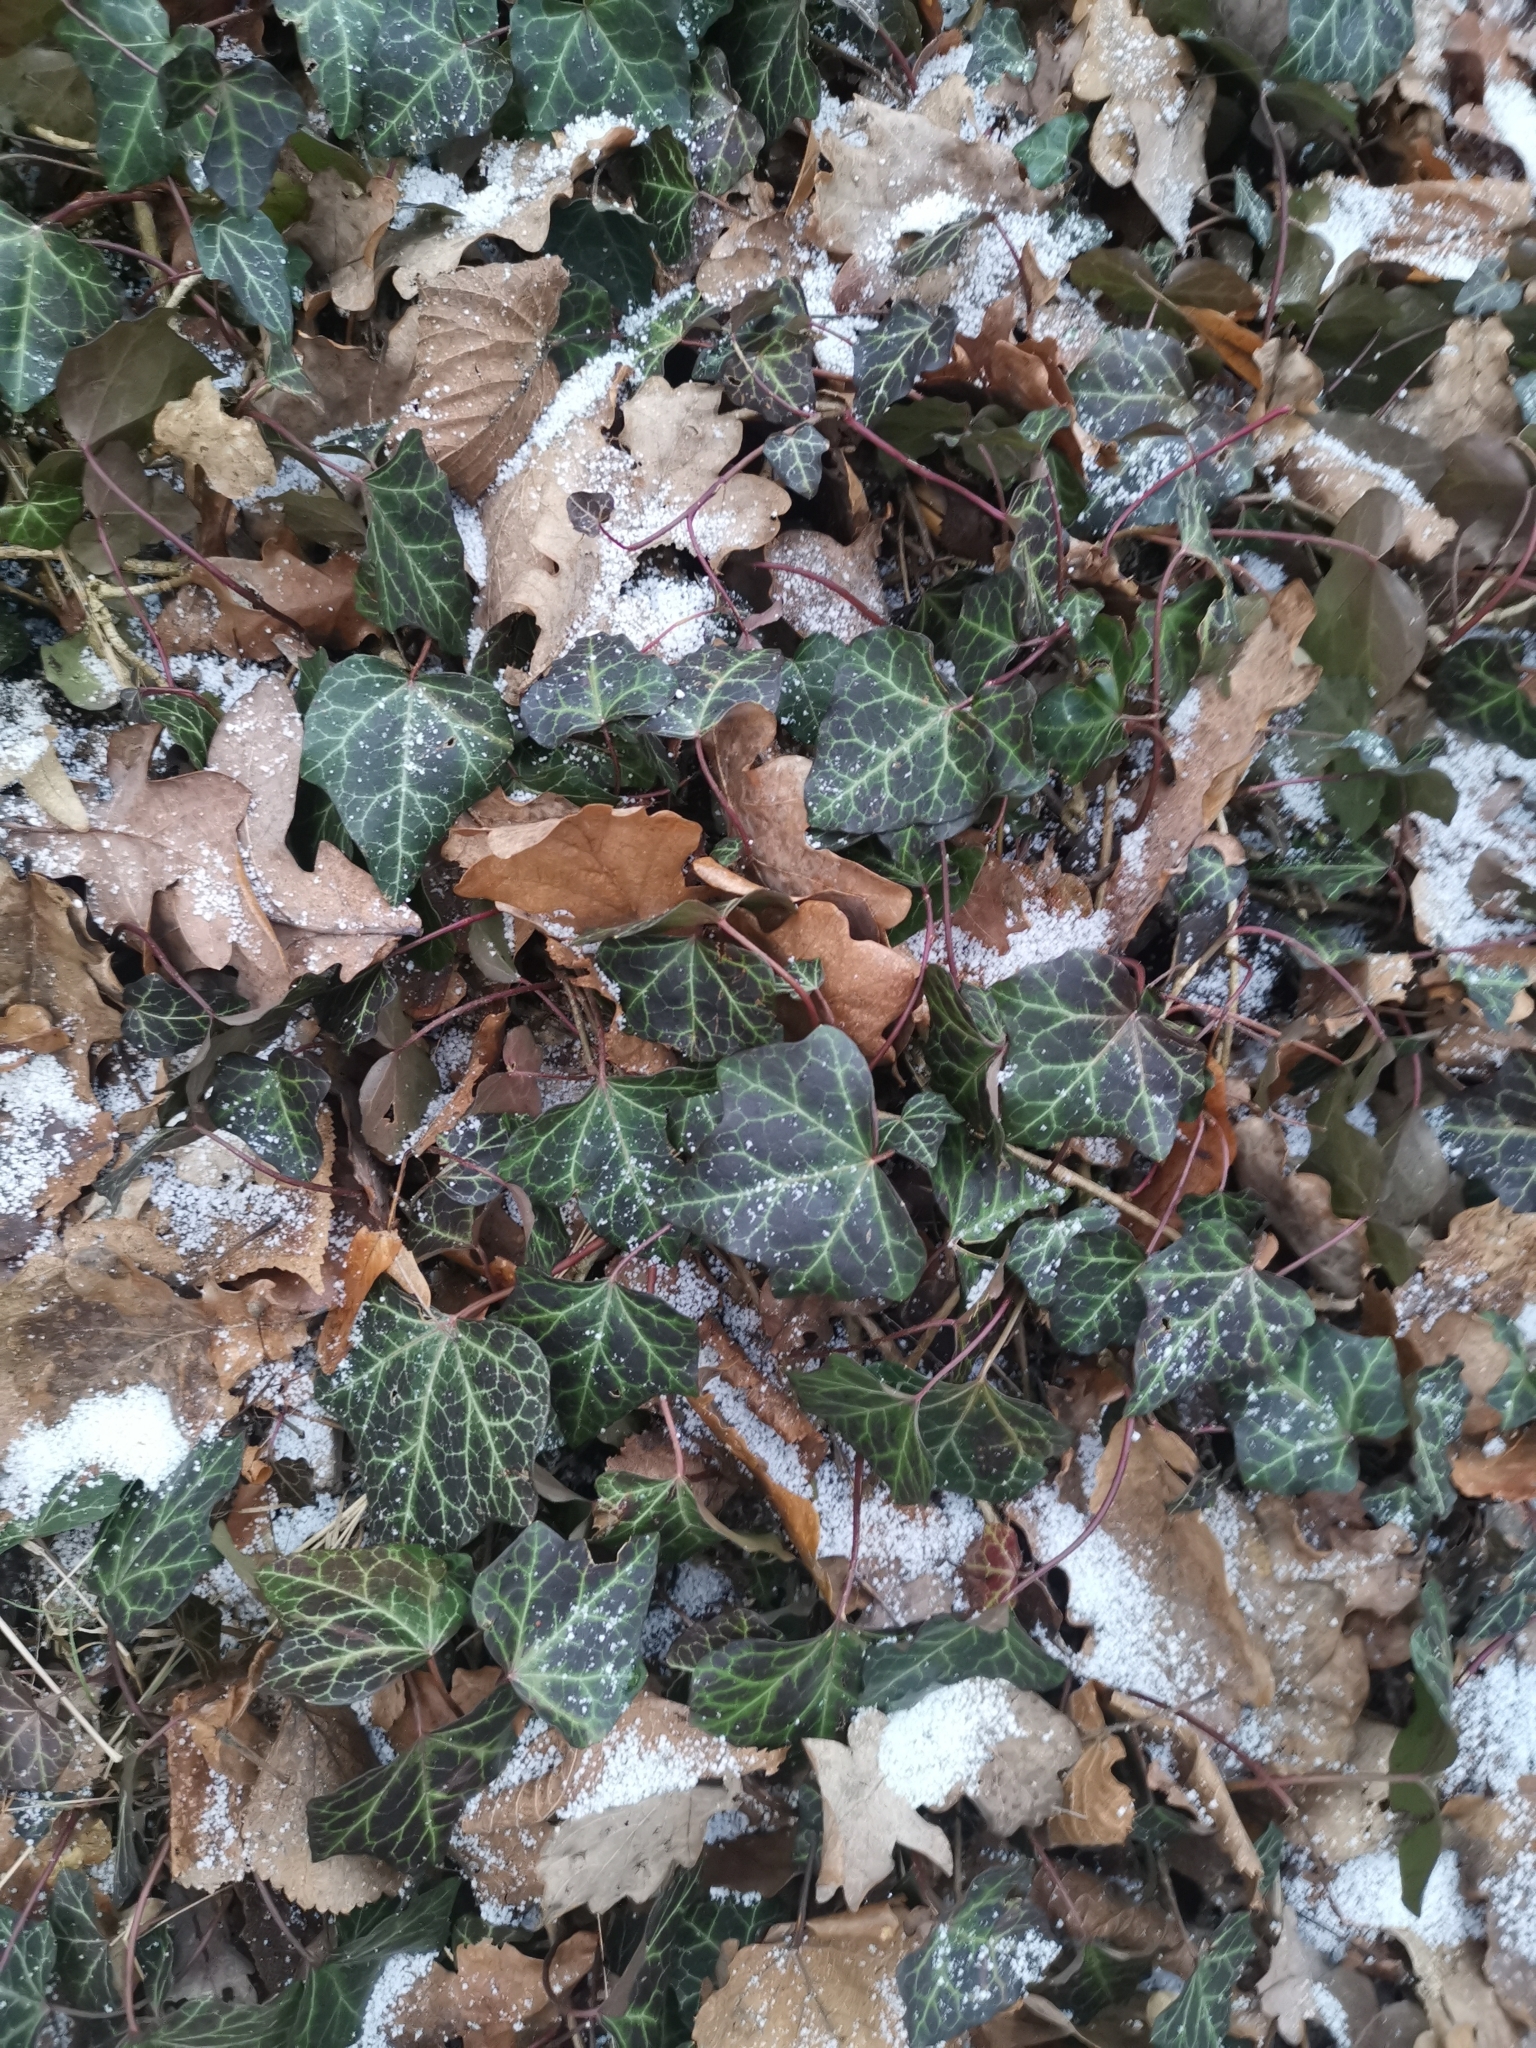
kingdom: Plantae
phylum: Tracheophyta
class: Magnoliopsida
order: Apiales
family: Araliaceae
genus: Hedera
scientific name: Hedera helix
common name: Ivy
